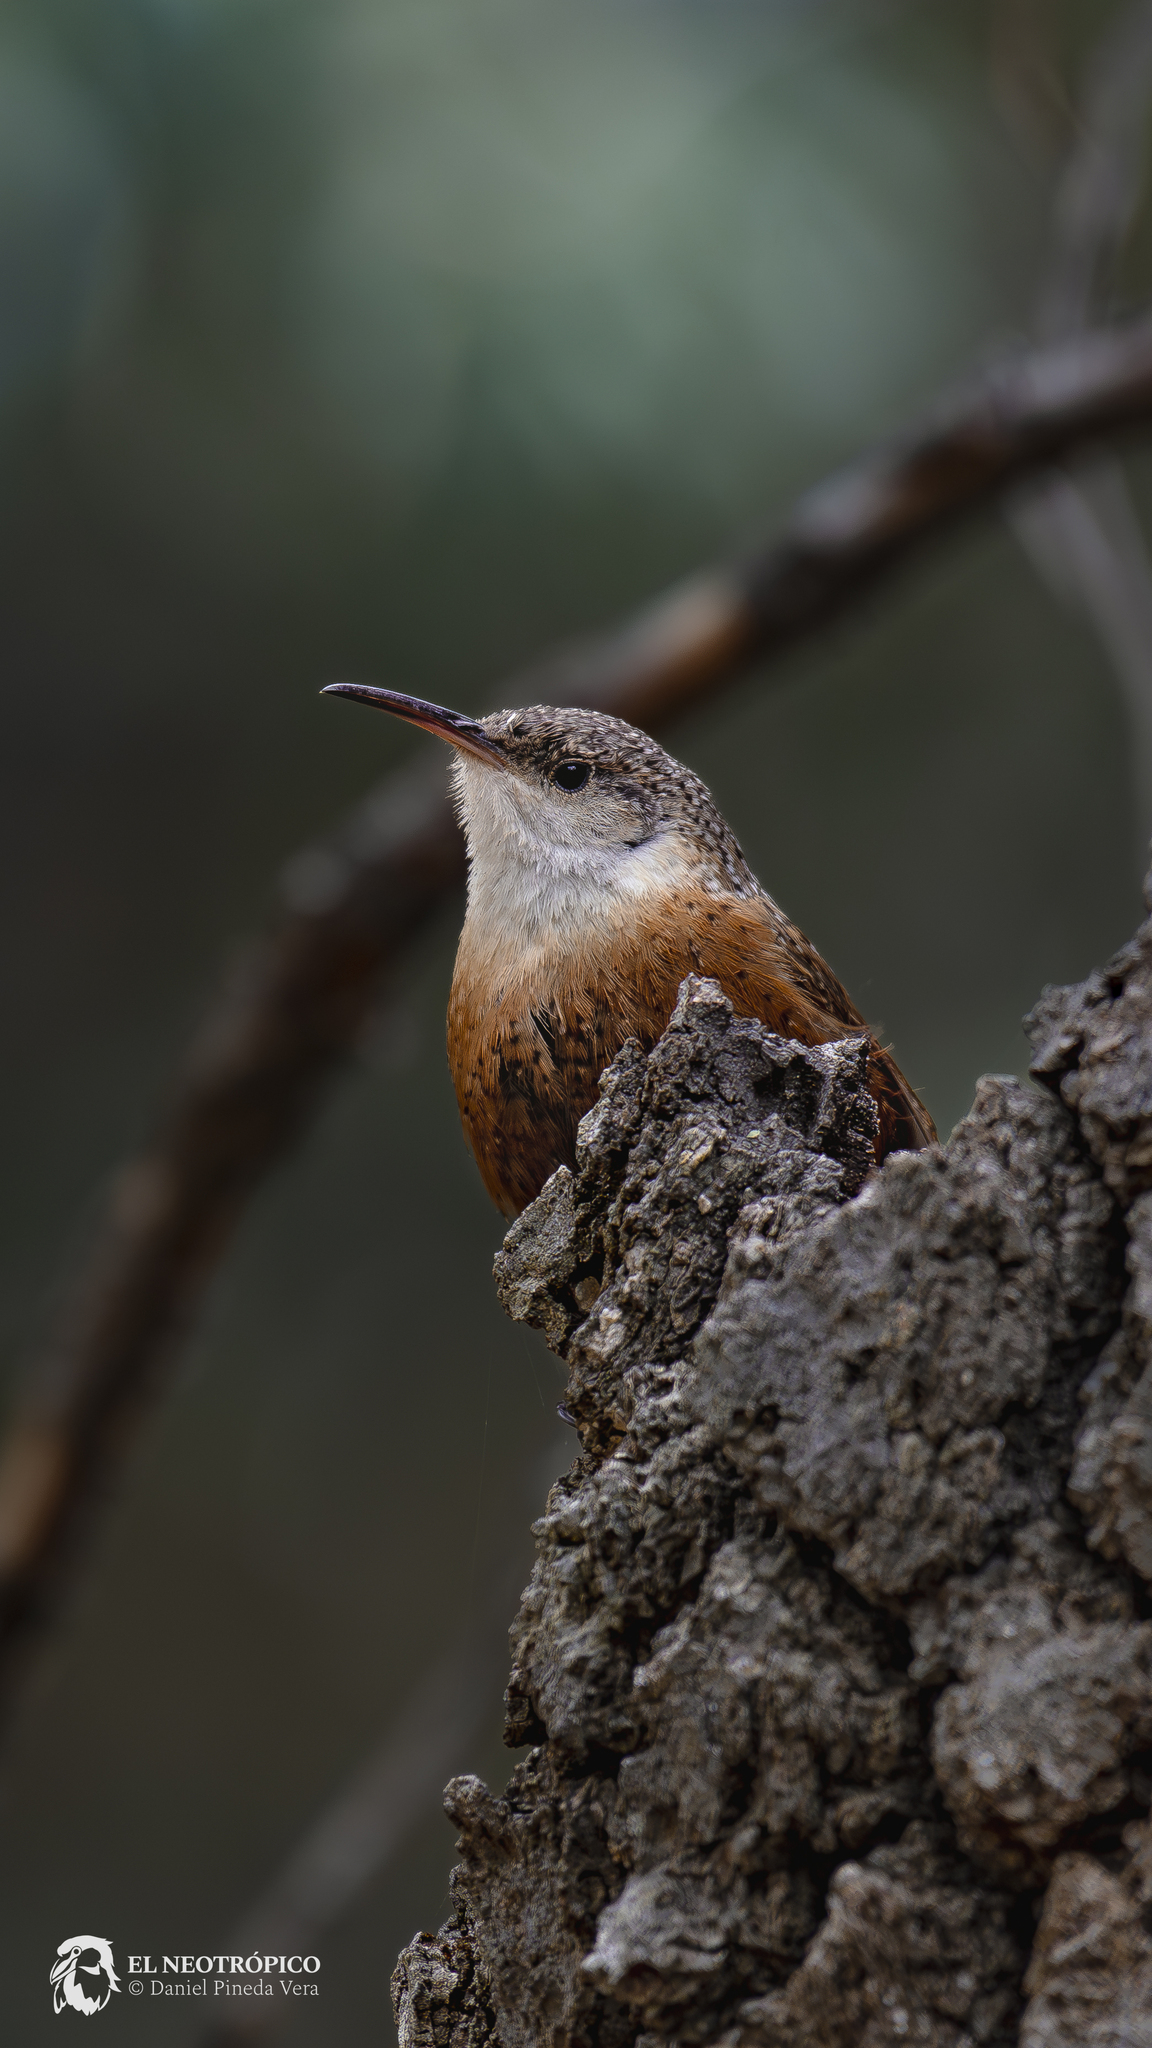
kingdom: Animalia
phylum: Chordata
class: Aves
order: Passeriformes
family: Troglodytidae
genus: Catherpes
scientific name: Catherpes mexicanus
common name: Canyon wren
